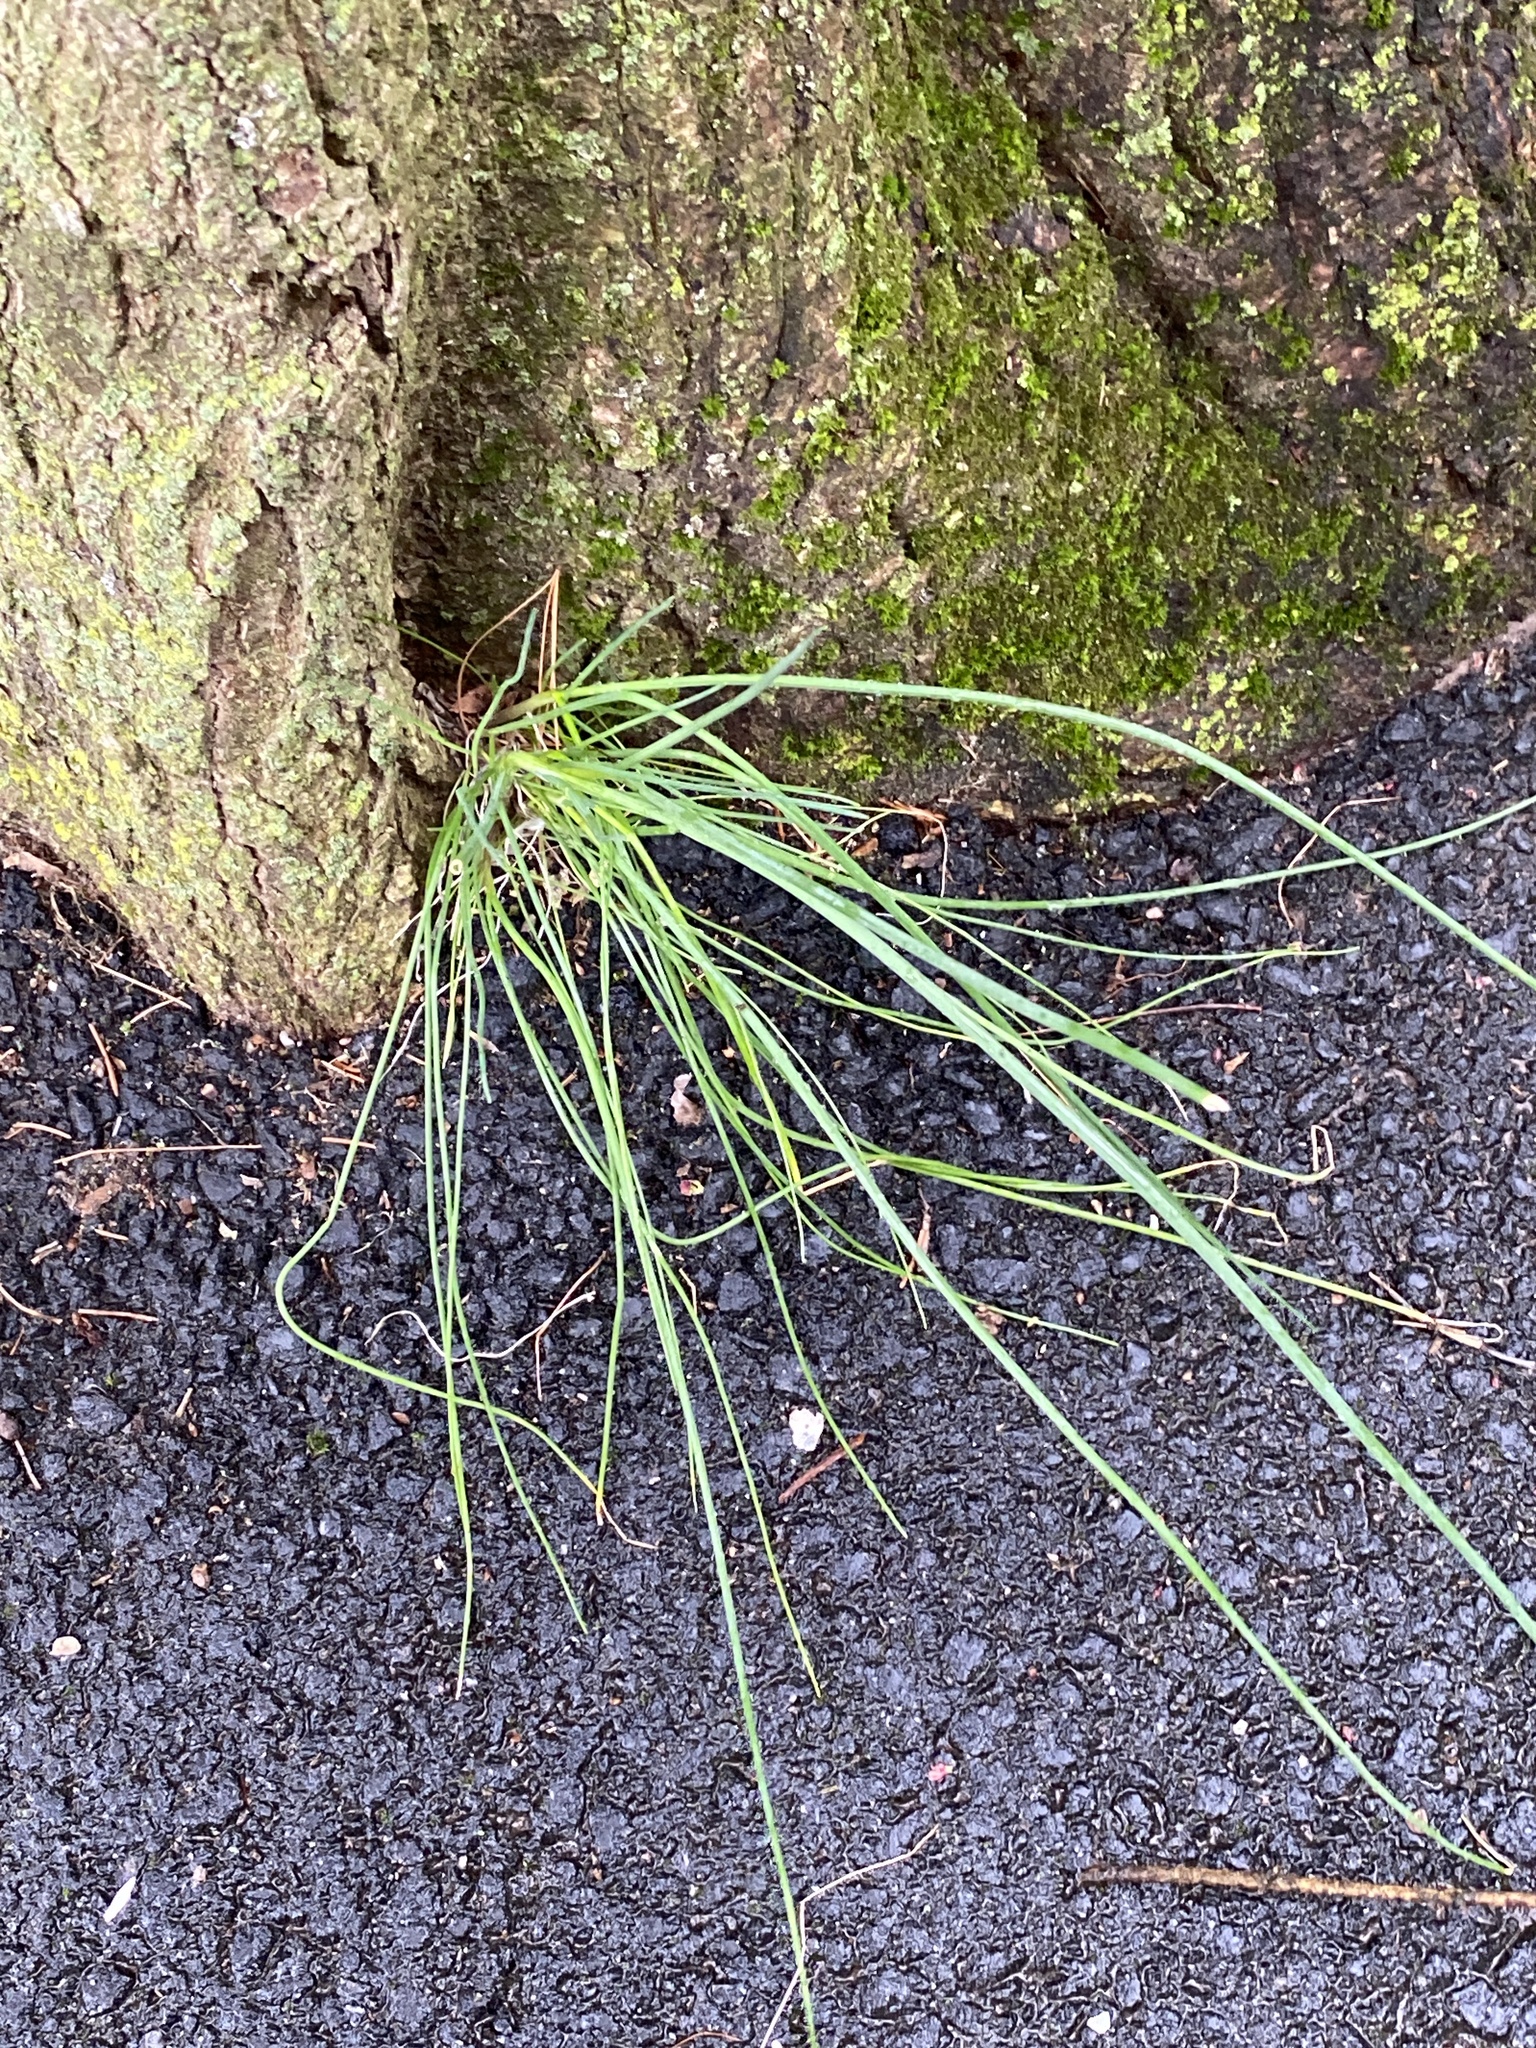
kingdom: Plantae
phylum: Tracheophyta
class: Liliopsida
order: Asparagales
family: Amaryllidaceae
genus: Allium
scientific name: Allium vineale
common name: Crow garlic
